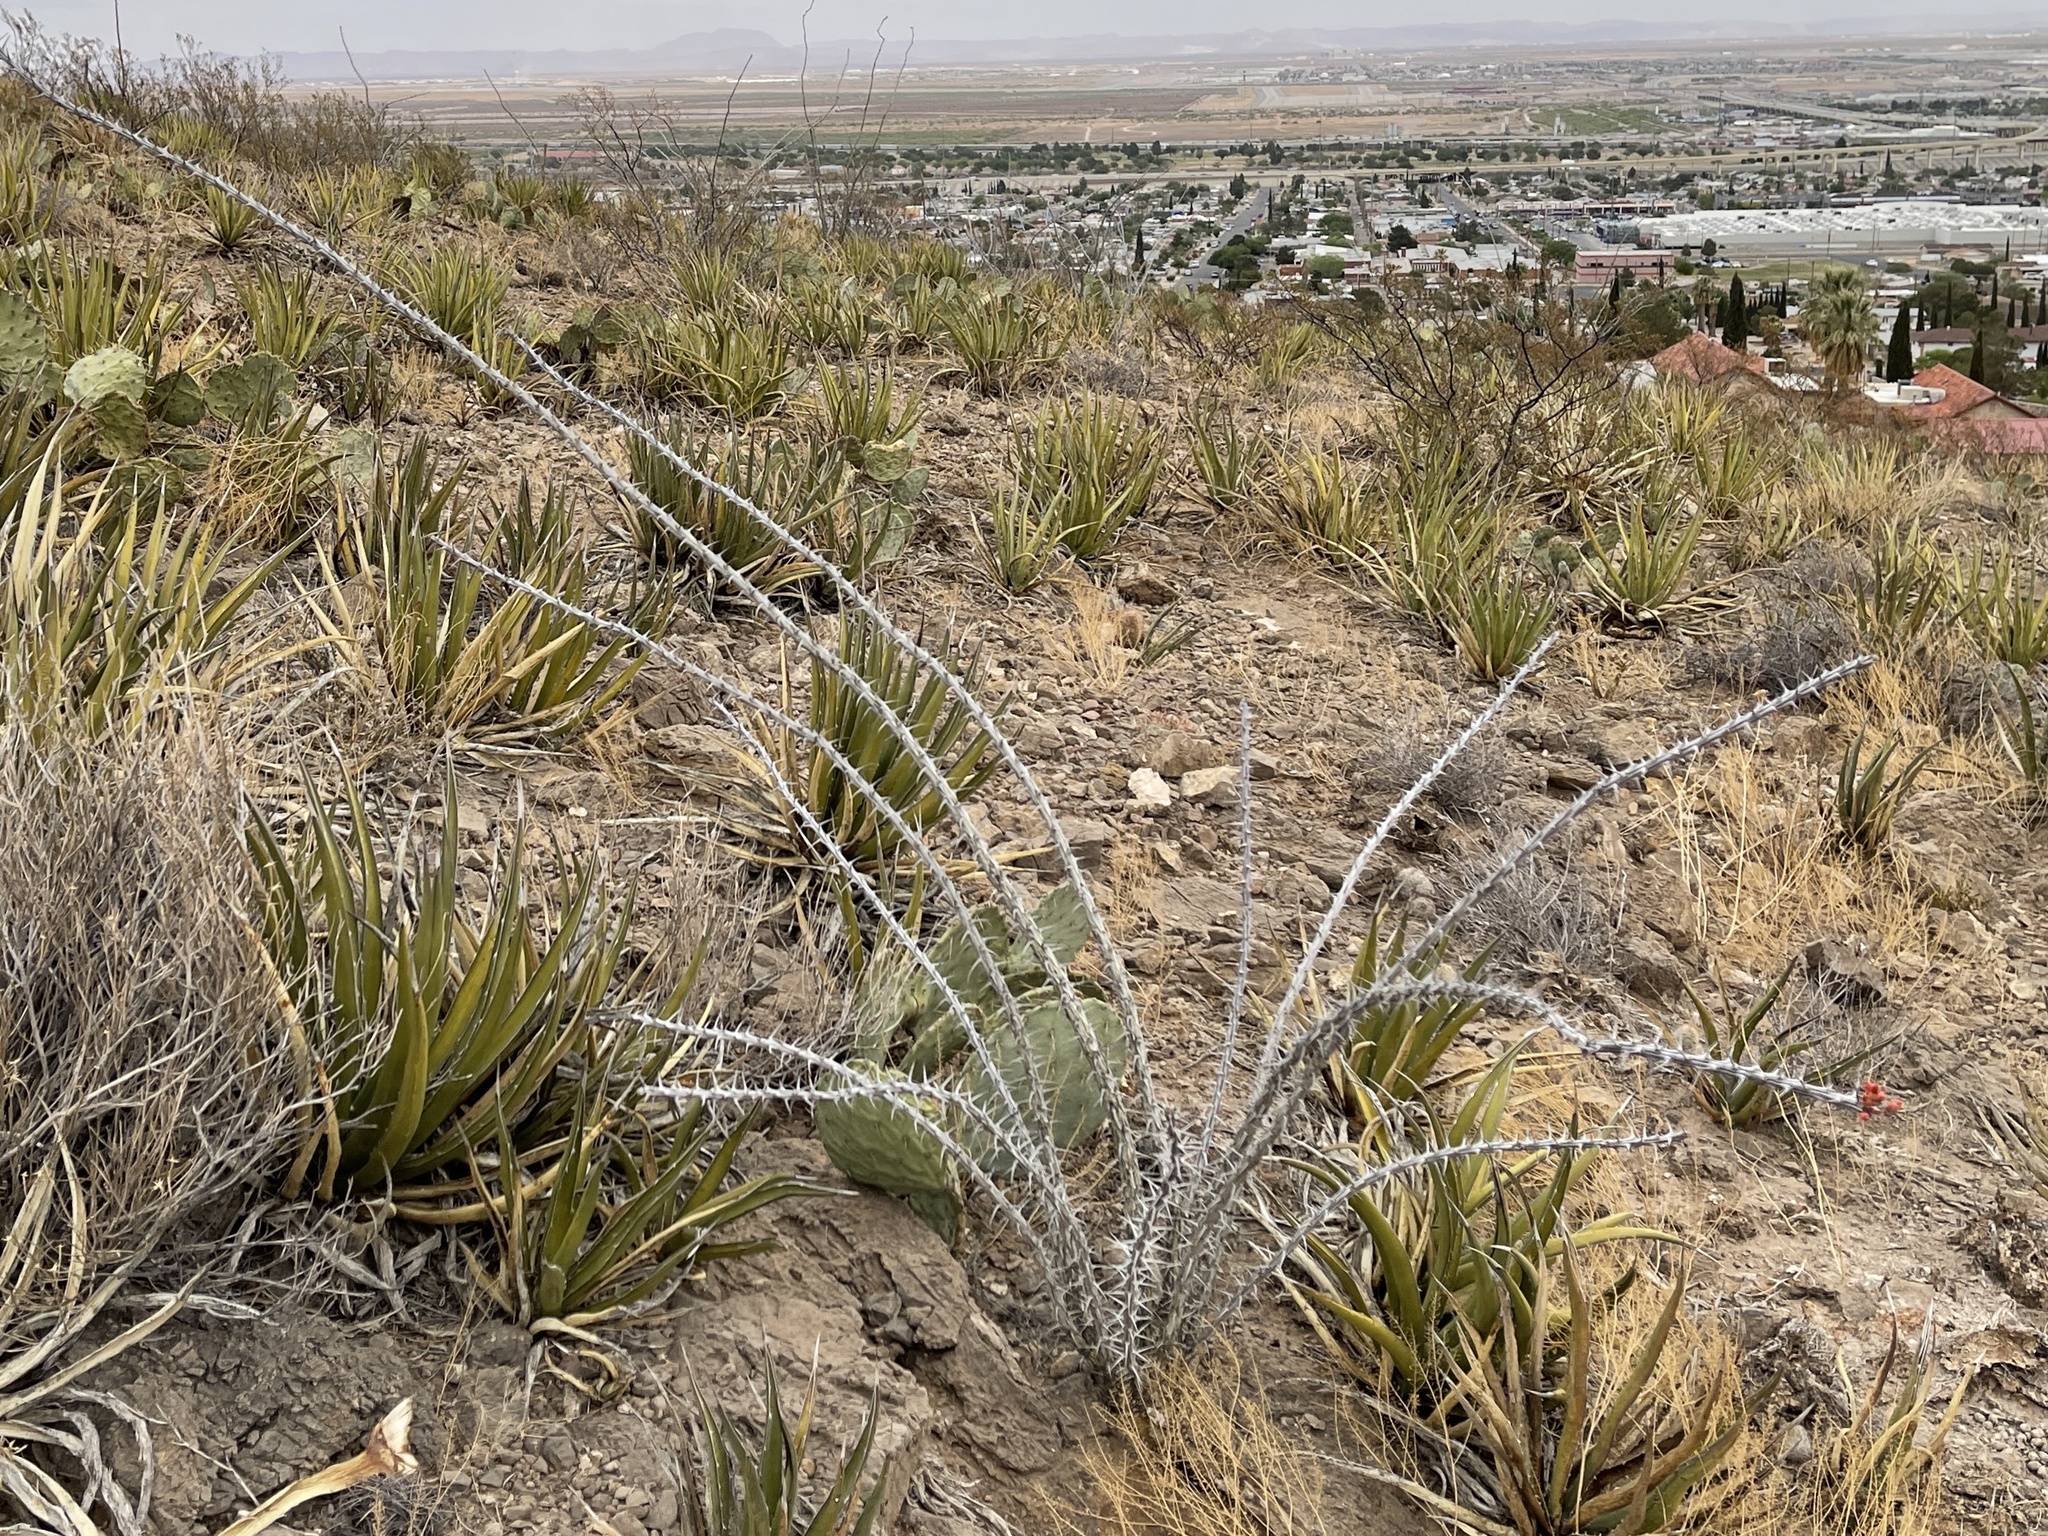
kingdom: Plantae
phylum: Tracheophyta
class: Magnoliopsida
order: Ericales
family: Fouquieriaceae
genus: Fouquieria
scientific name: Fouquieria splendens
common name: Vine-cactus
